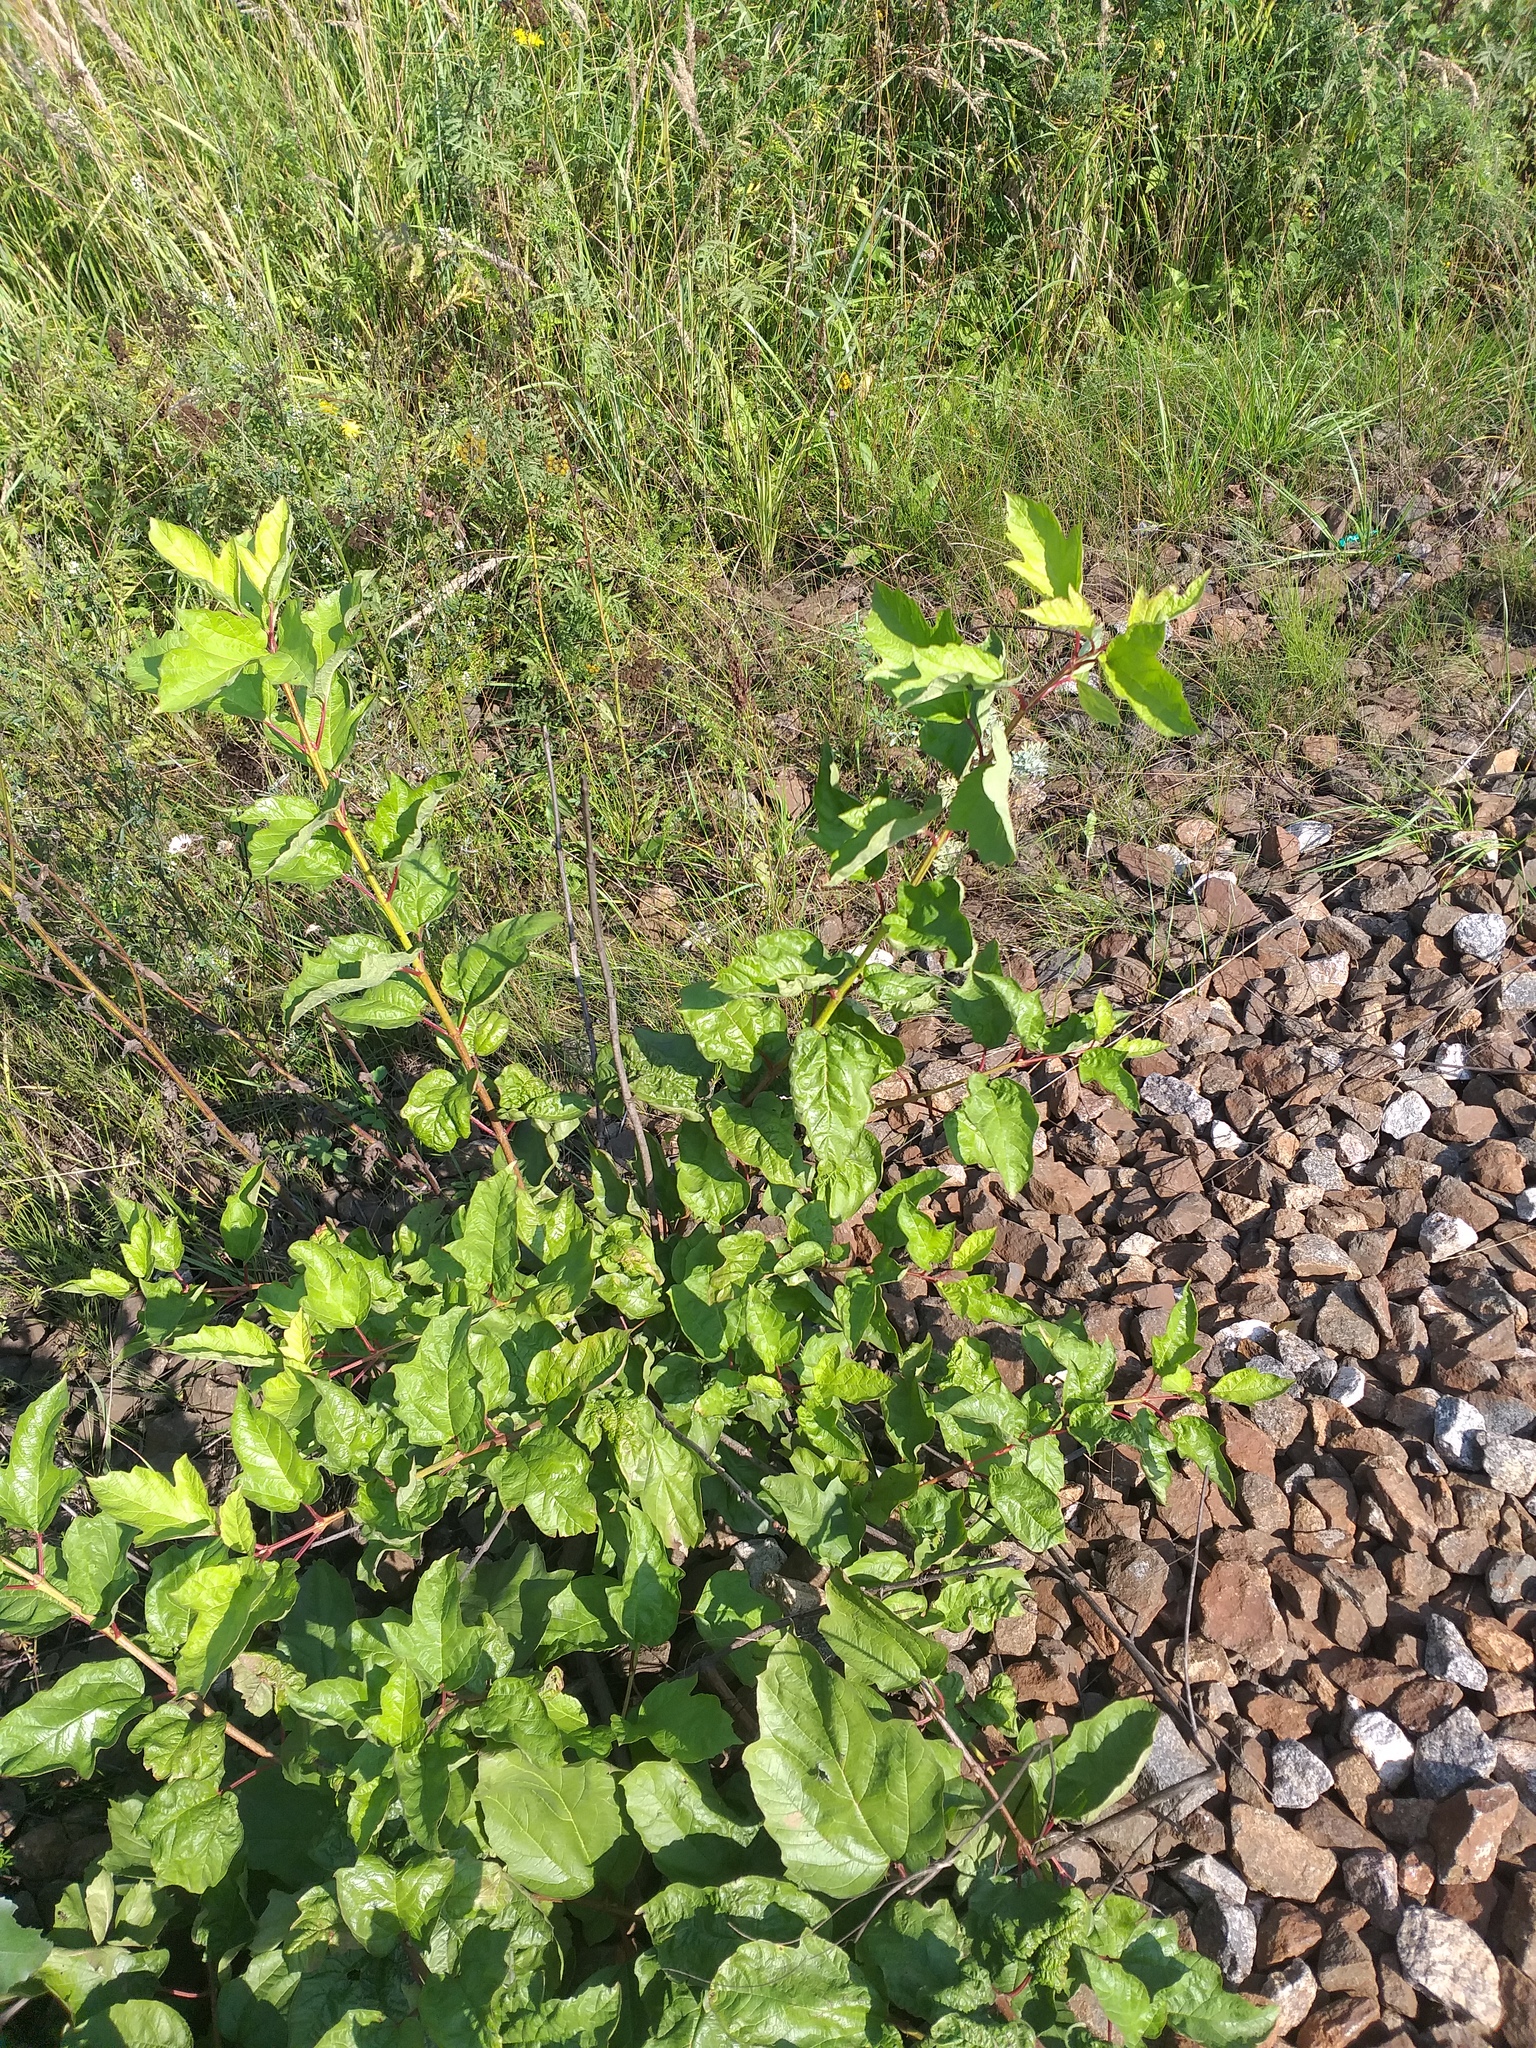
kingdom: Plantae
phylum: Tracheophyta
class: Magnoliopsida
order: Dipsacales
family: Viburnaceae
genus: Viburnum
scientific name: Viburnum opulus
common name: Guelder-rose
